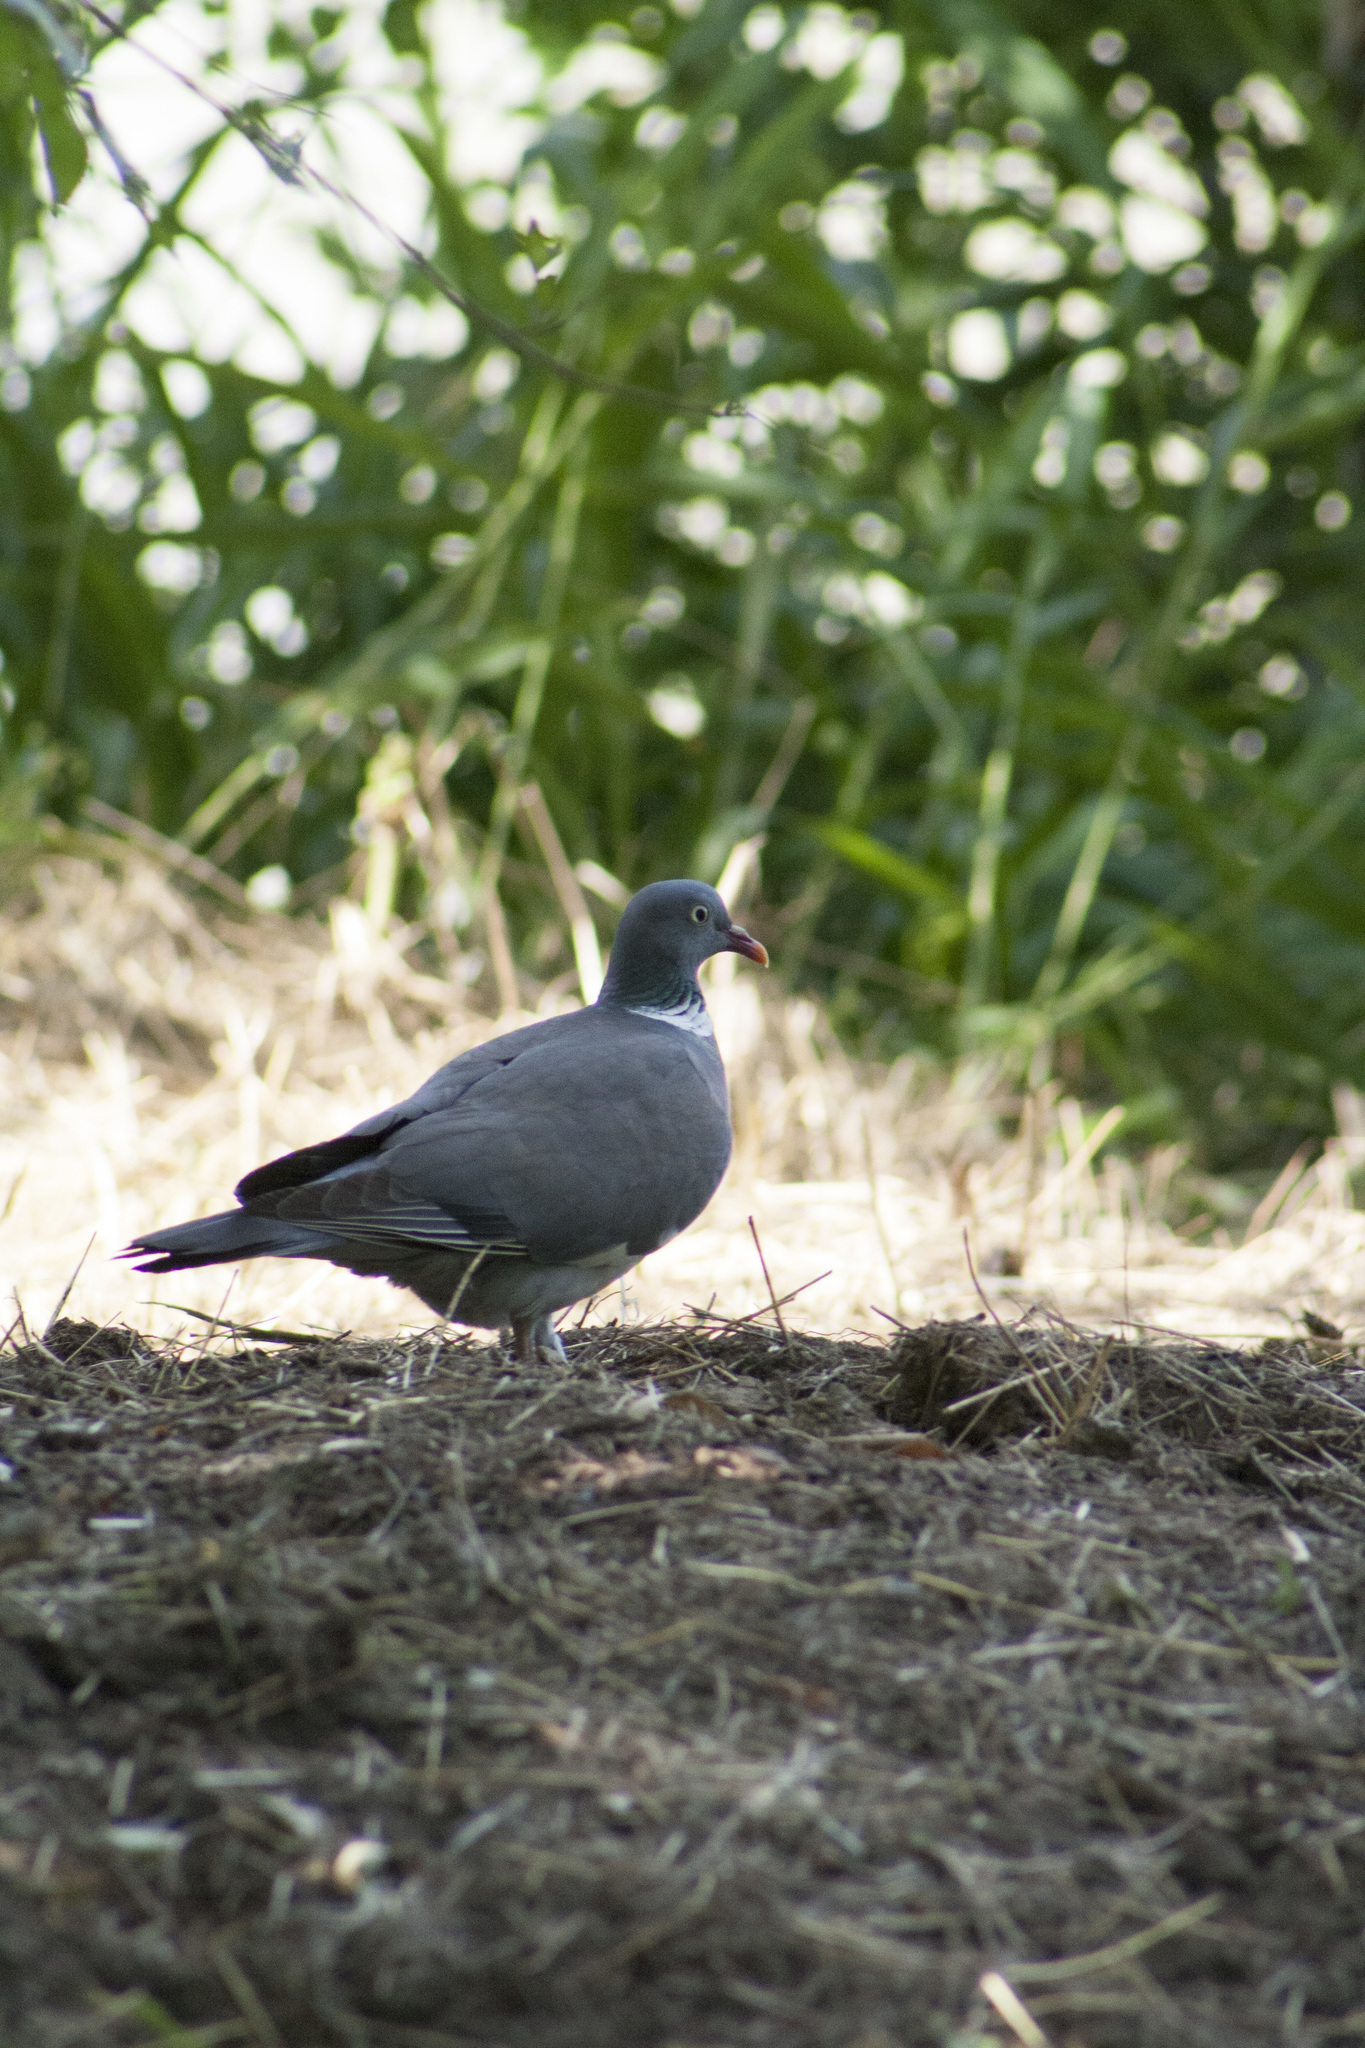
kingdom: Animalia
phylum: Chordata
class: Aves
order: Columbiformes
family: Columbidae
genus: Columba
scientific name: Columba palumbus
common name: Common wood pigeon
